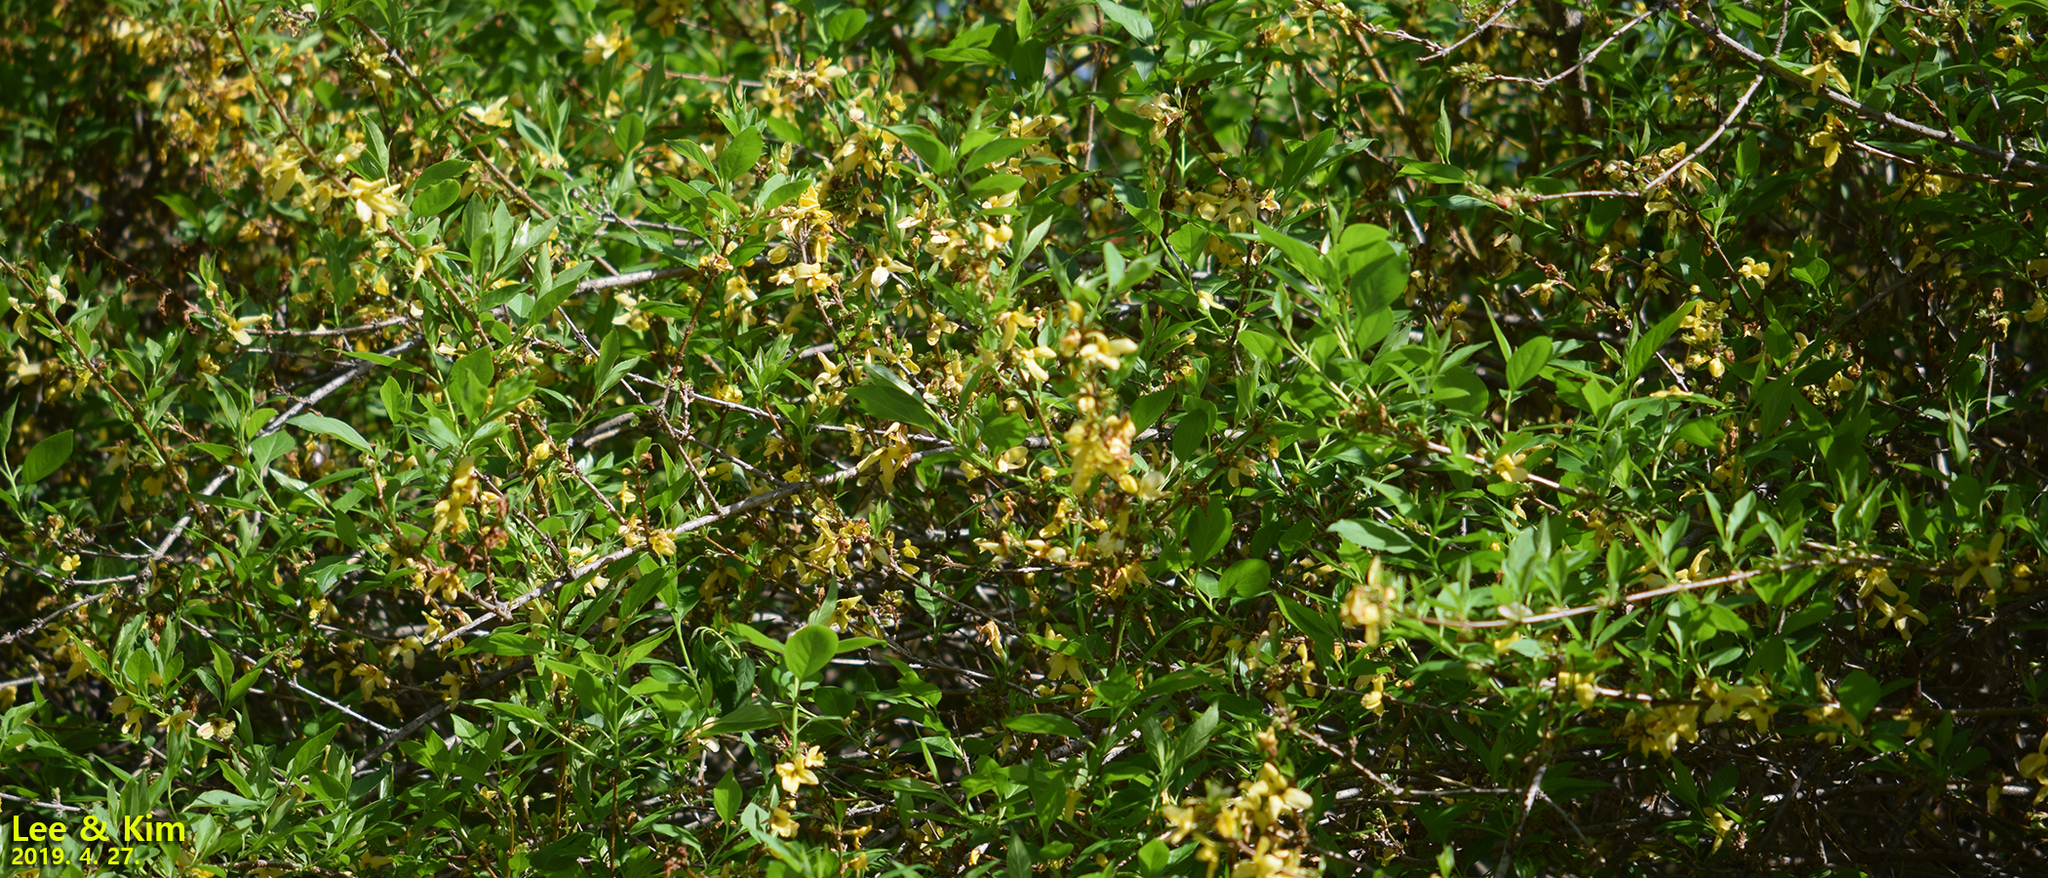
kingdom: Plantae
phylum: Tracheophyta
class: Magnoliopsida
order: Lamiales
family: Oleaceae
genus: Forsythia
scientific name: Forsythia koreana
